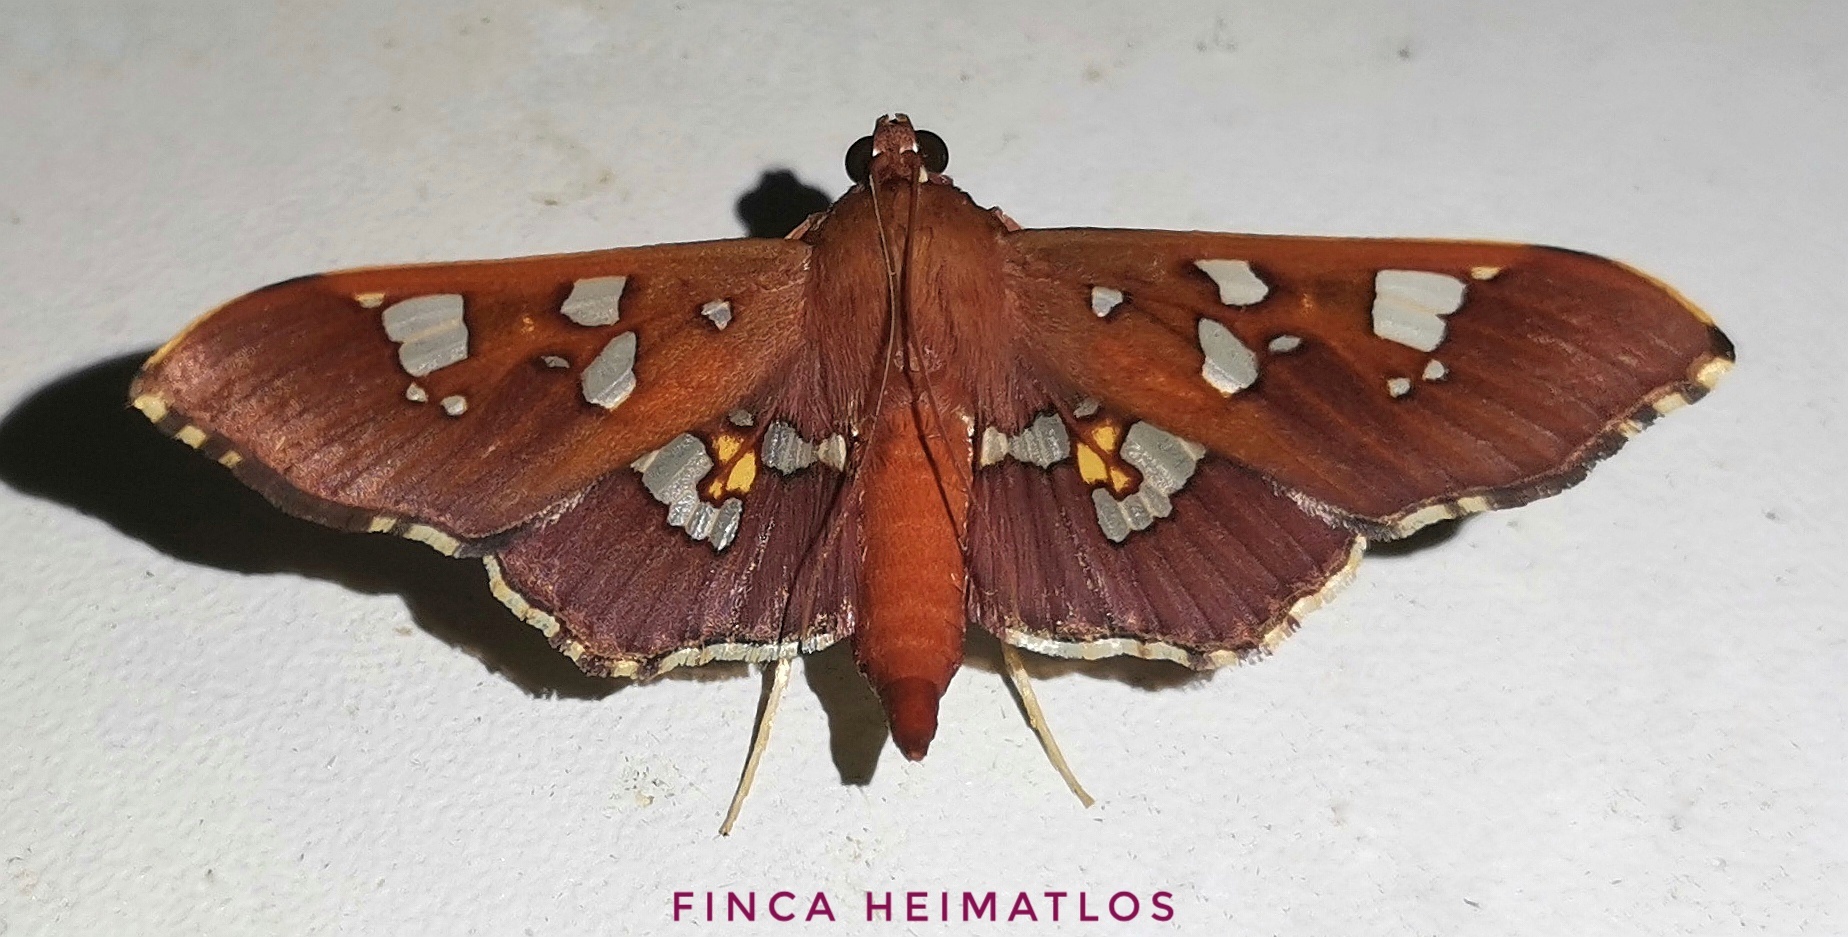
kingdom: Animalia
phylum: Arthropoda
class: Insecta
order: Lepidoptera
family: Crambidae
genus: Phostria
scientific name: Phostria temira
